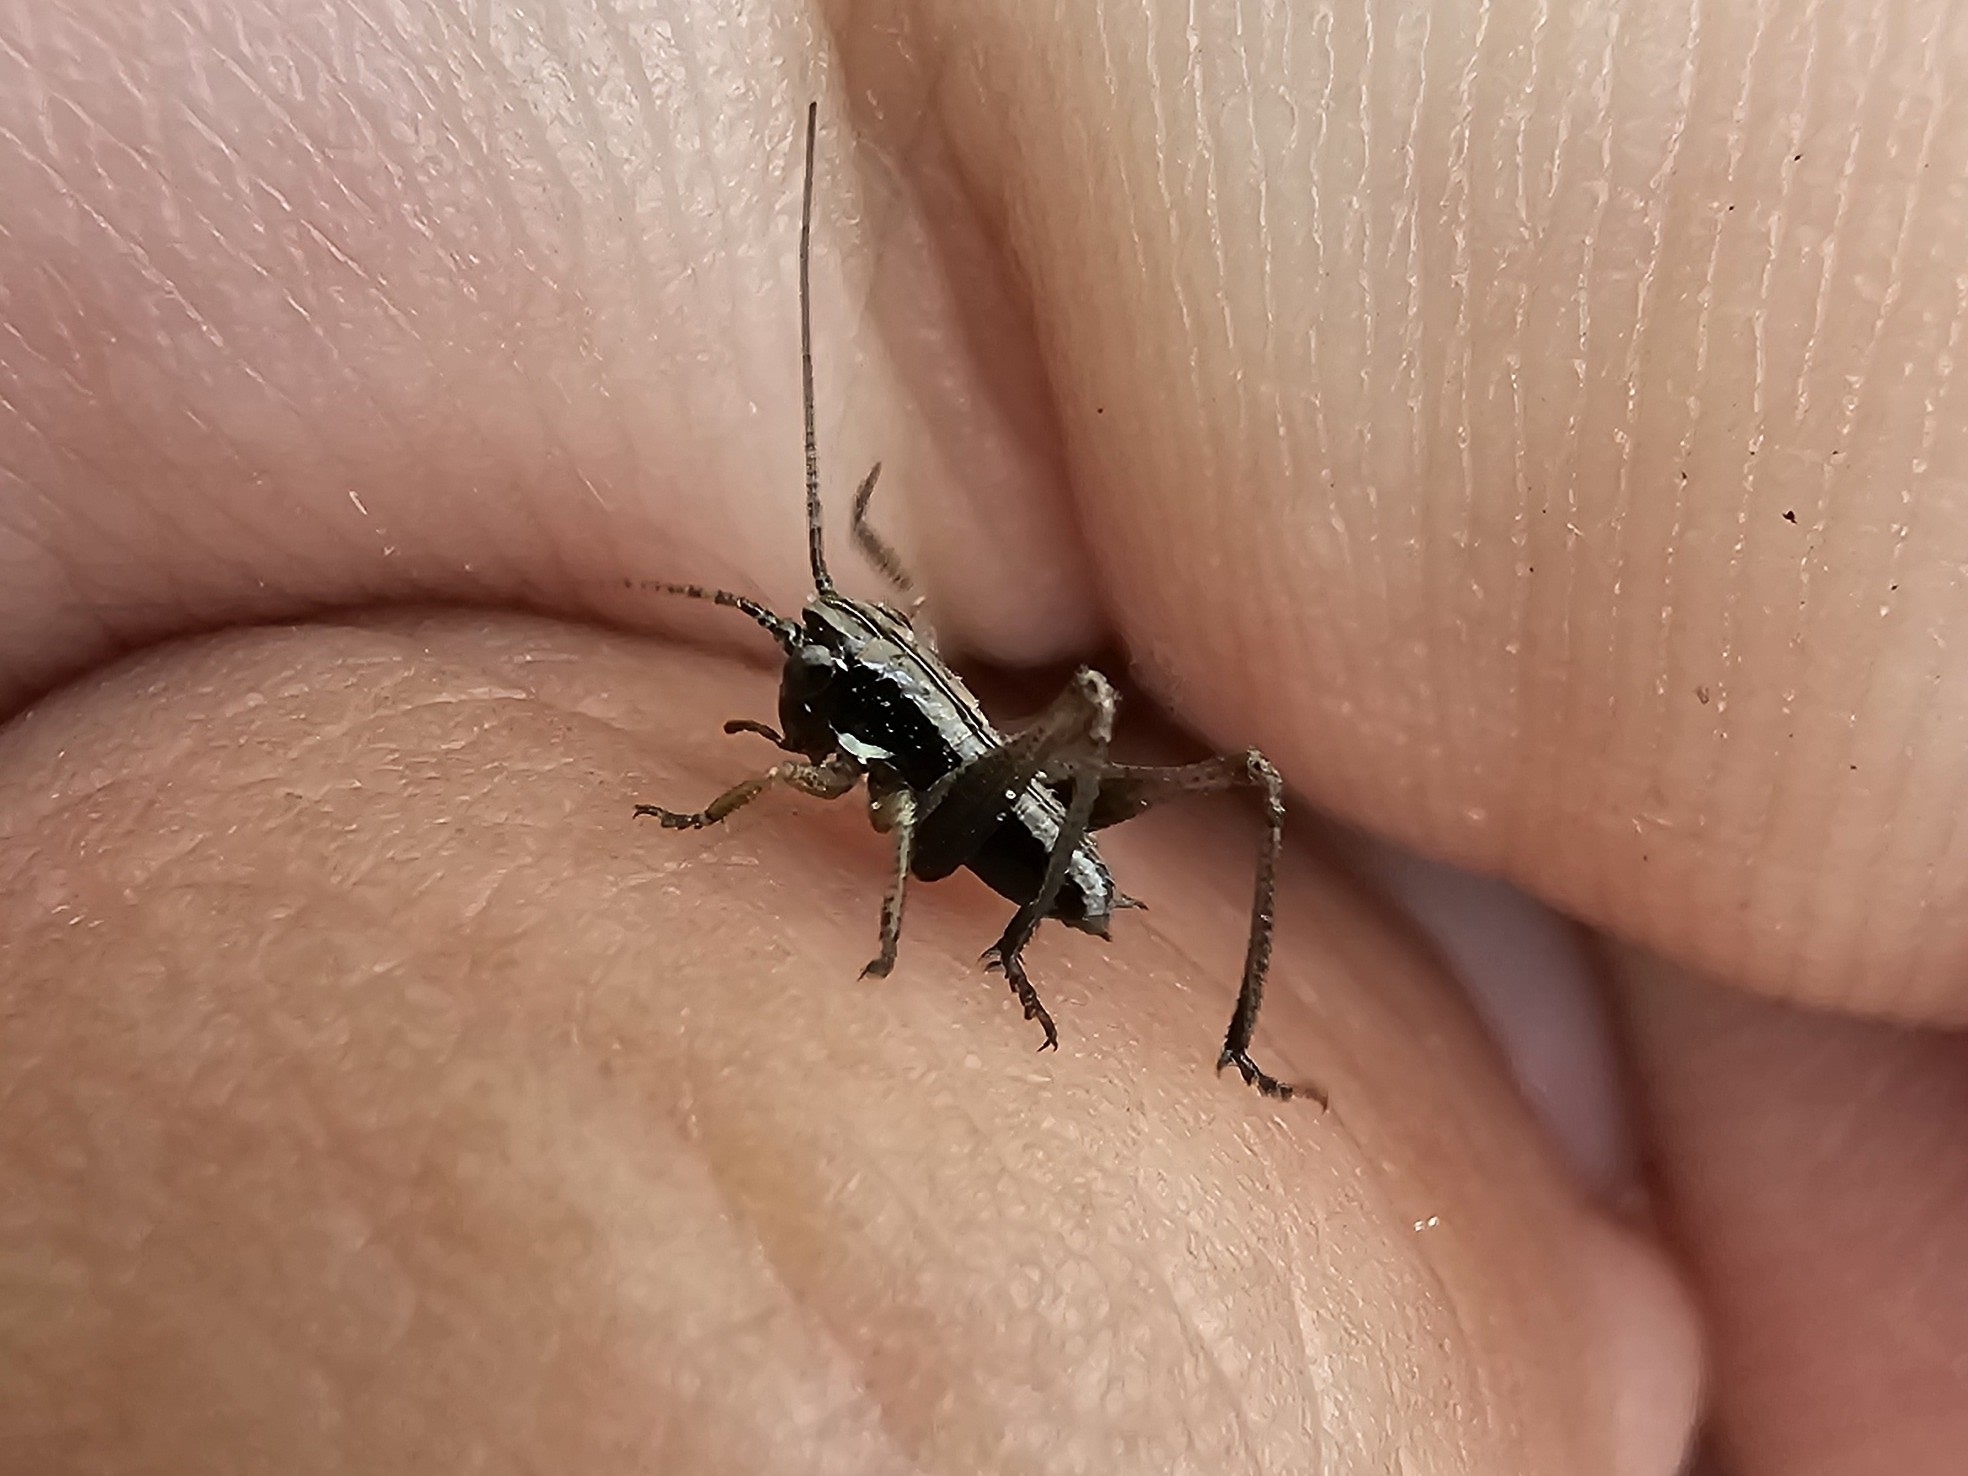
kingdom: Animalia
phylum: Arthropoda
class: Insecta
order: Orthoptera
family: Tettigoniidae
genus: Platycleis
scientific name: Platycleis albopunctata
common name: Grey bush-cricket
